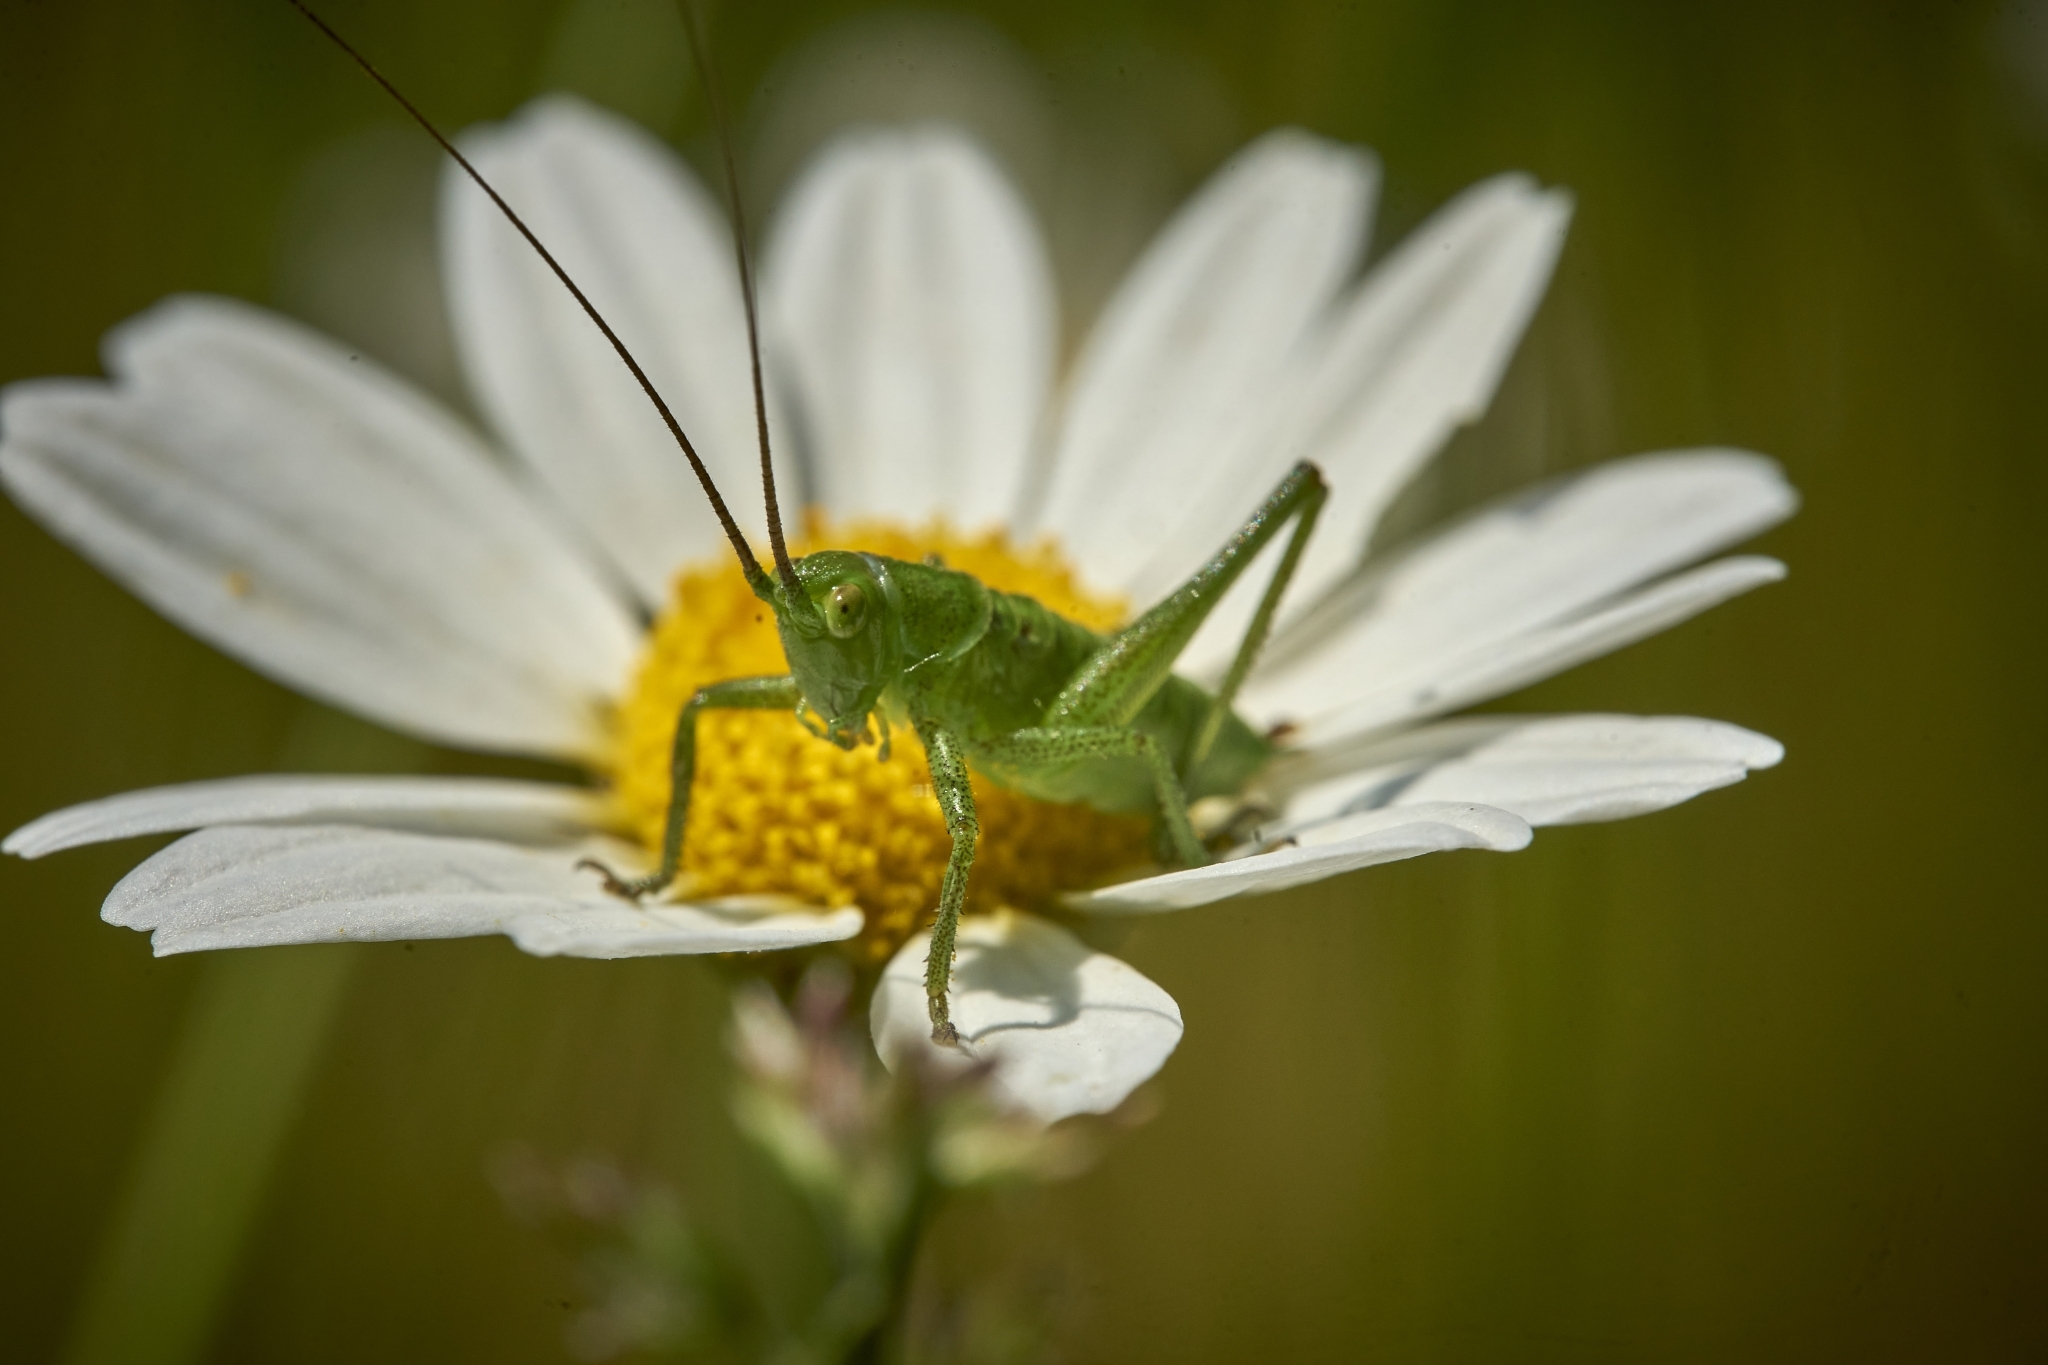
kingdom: Animalia
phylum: Arthropoda
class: Insecta
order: Orthoptera
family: Tettigoniidae
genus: Tettigonia
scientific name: Tettigonia viridissima
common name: Great green bush-cricket
